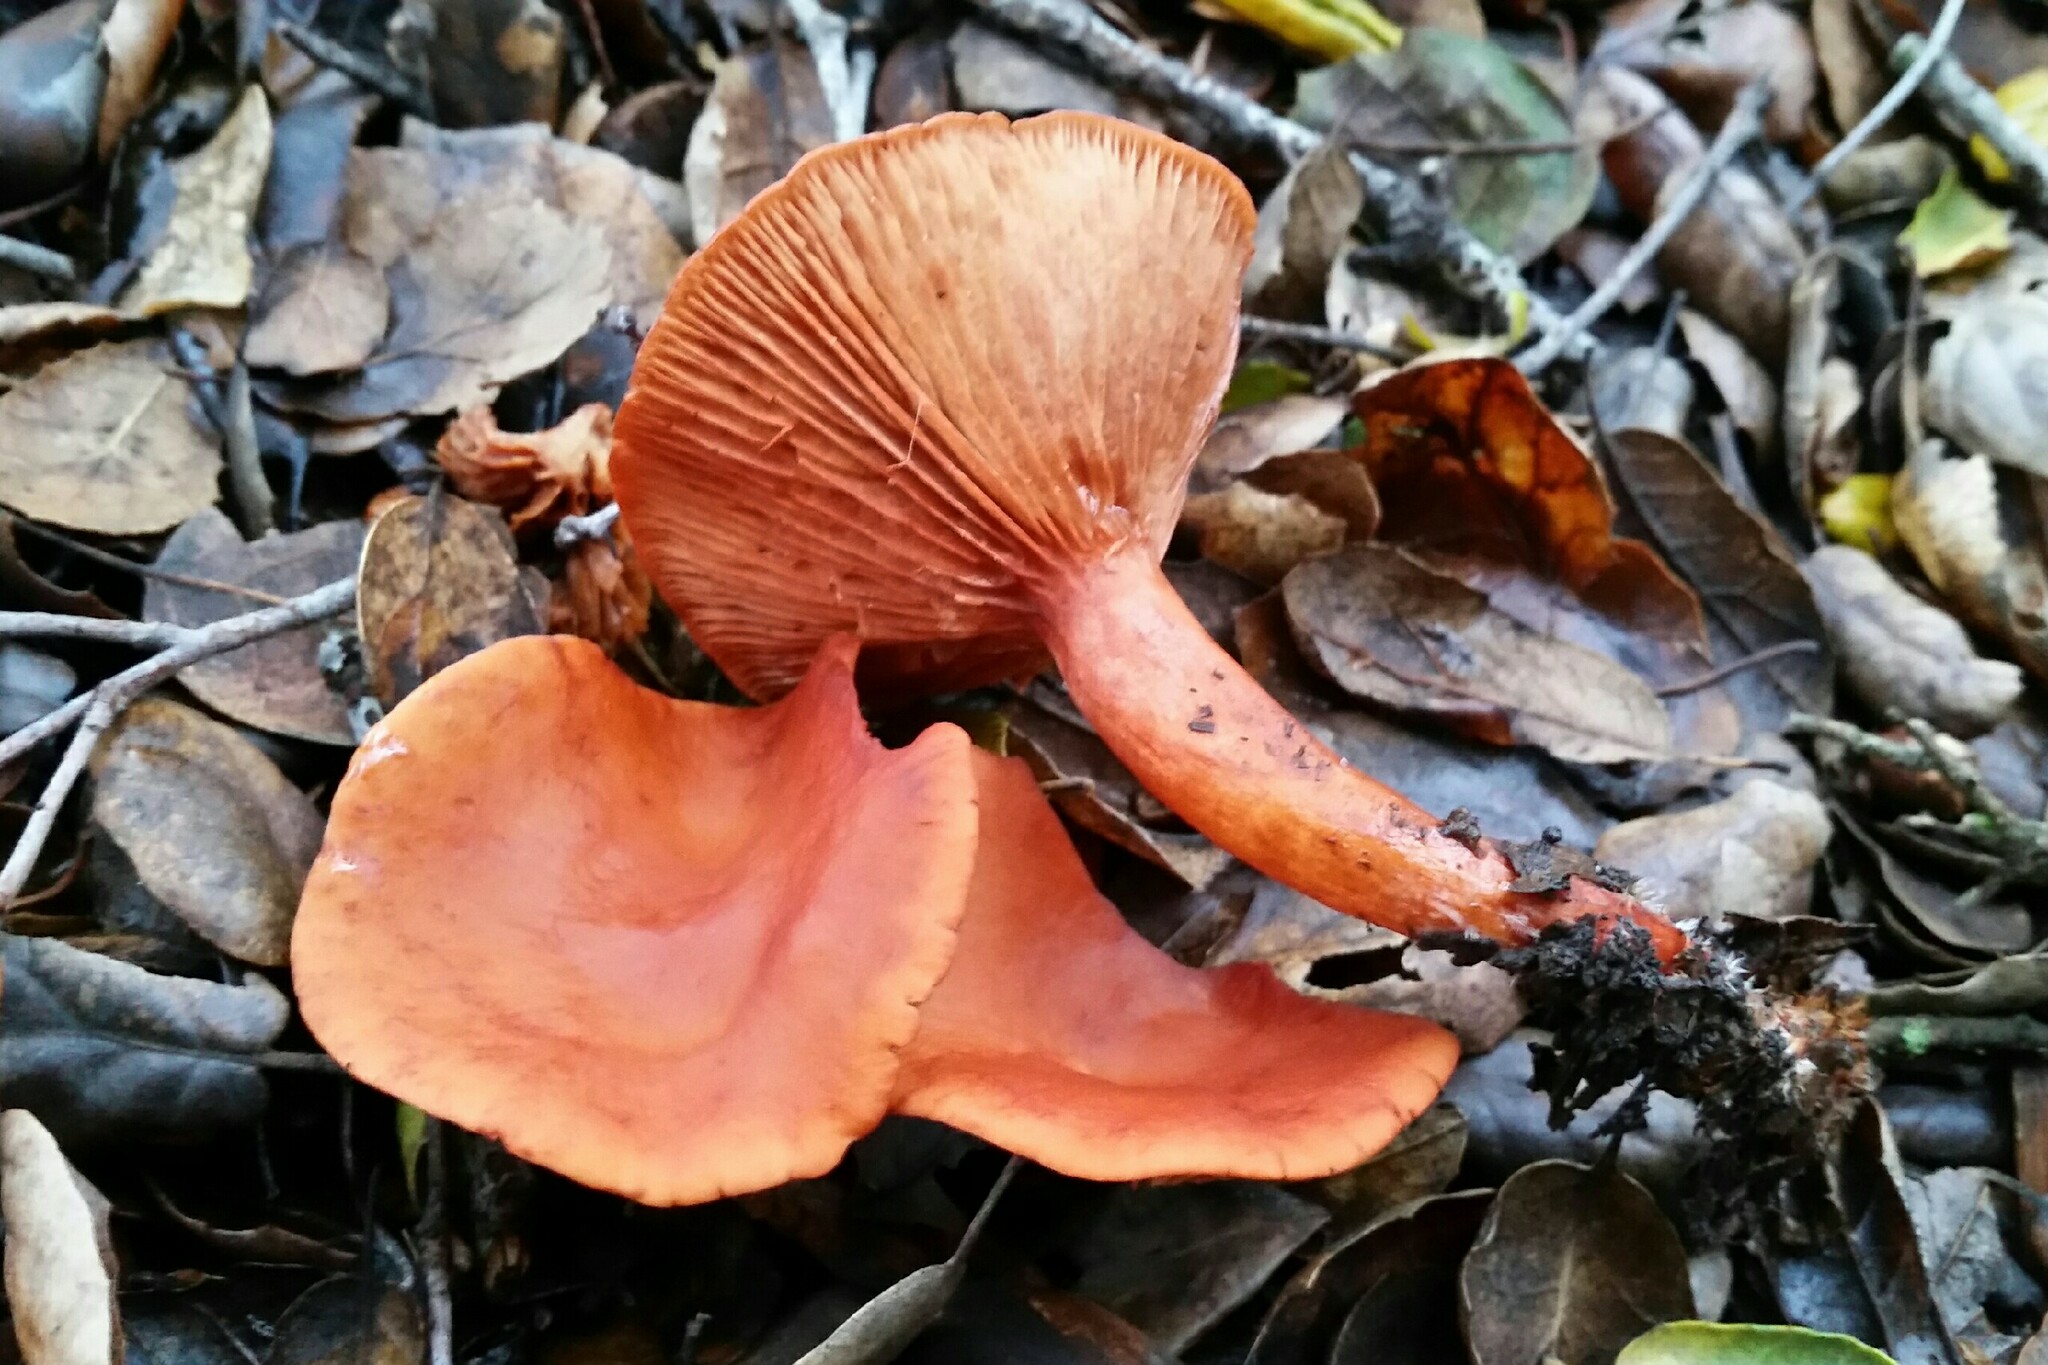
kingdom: Fungi
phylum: Basidiomycota
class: Agaricomycetes
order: Russulales
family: Russulaceae
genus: Lactarius
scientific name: Lactarius rubidus
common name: Candy cap
